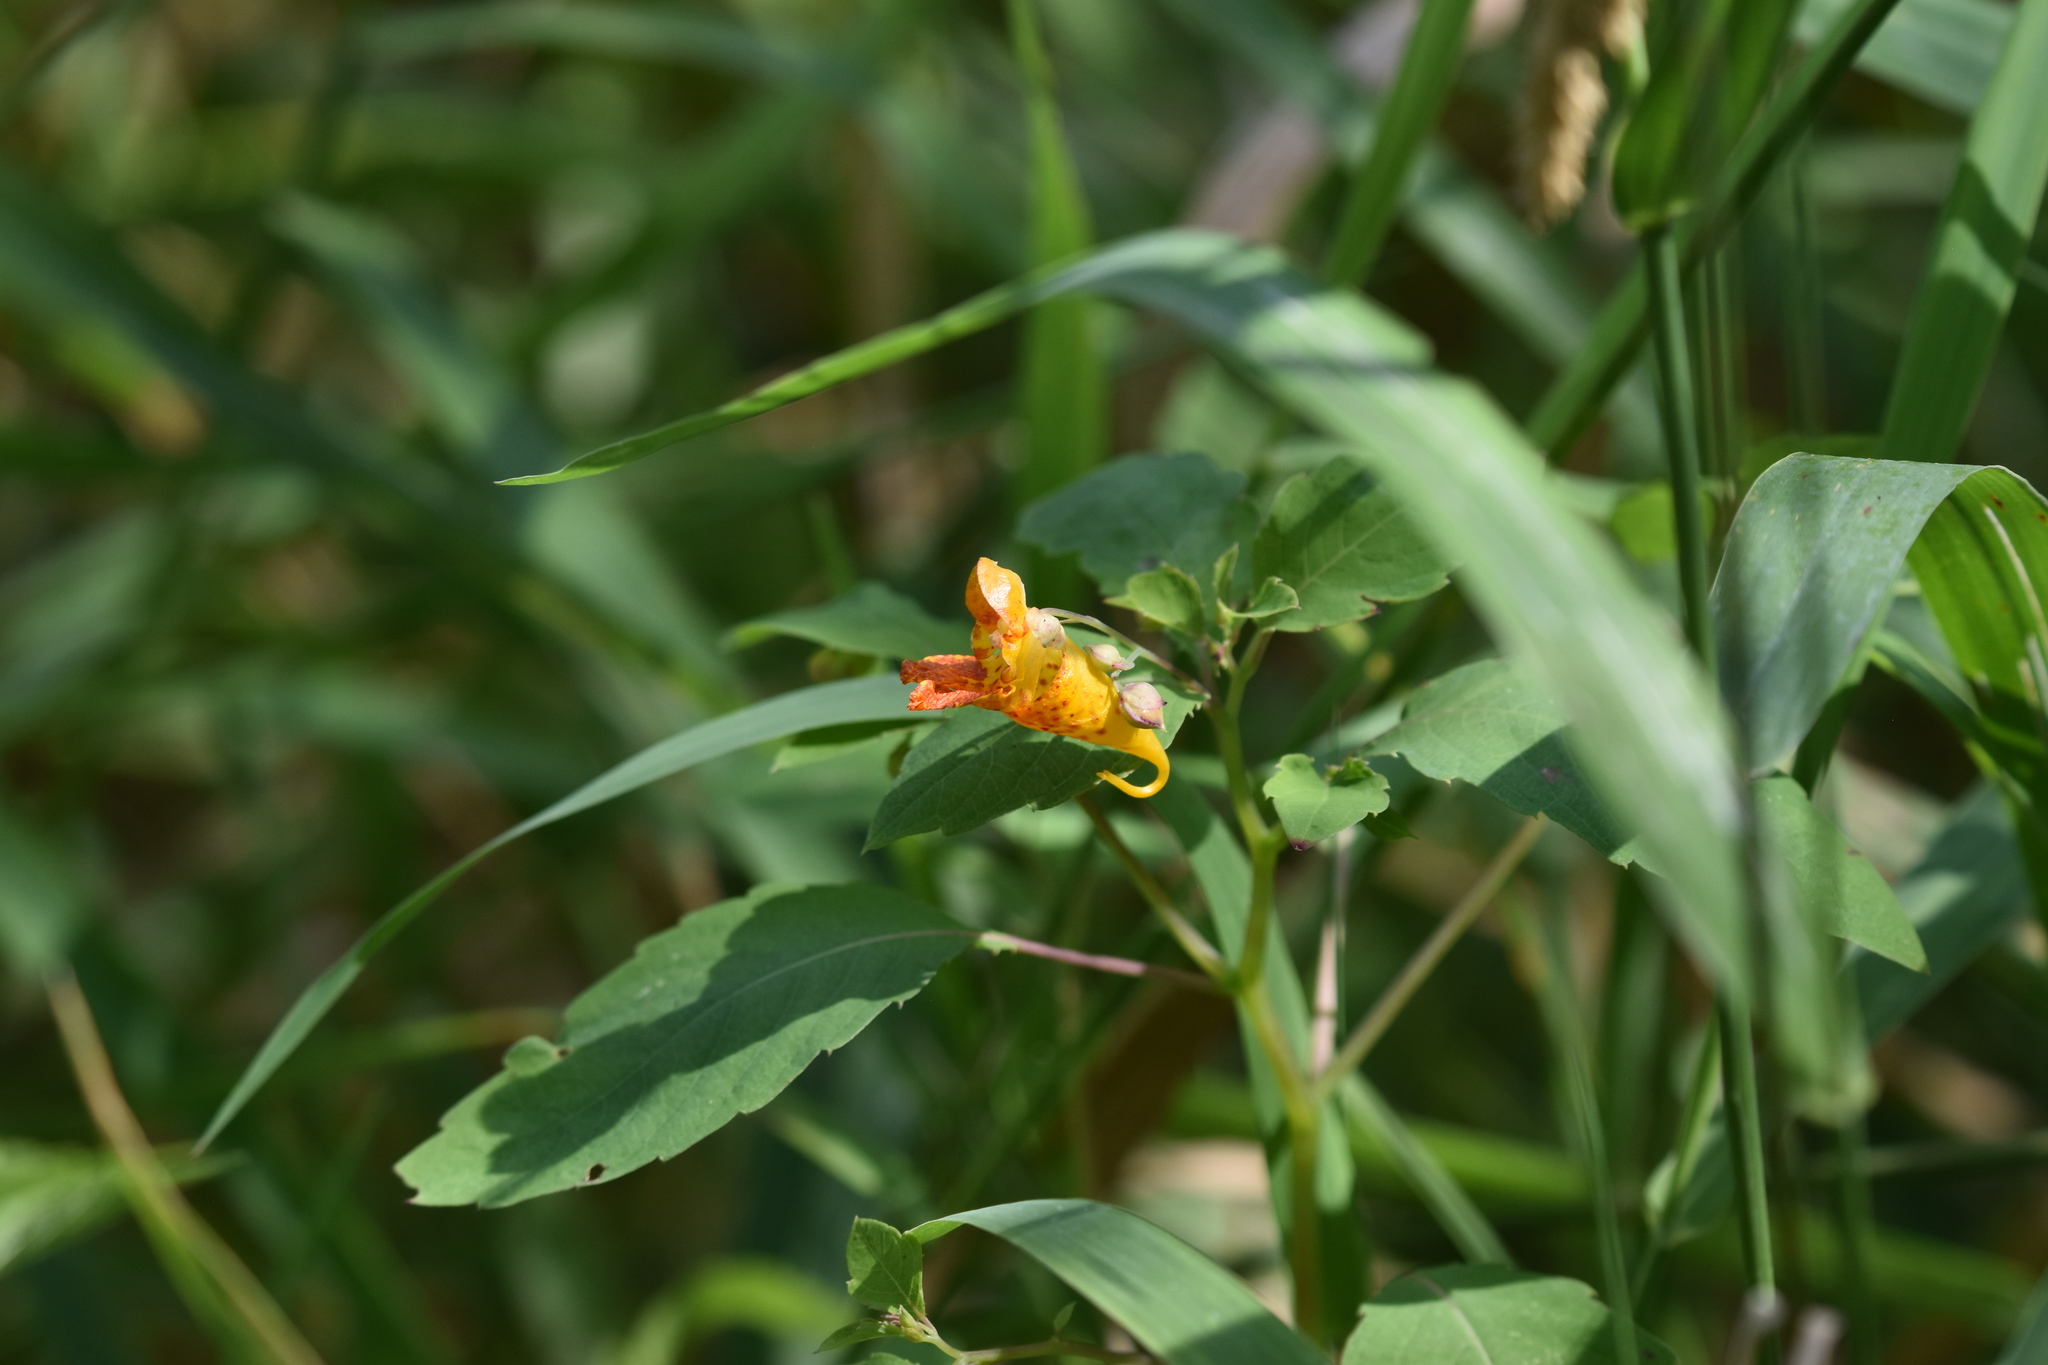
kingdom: Plantae
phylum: Tracheophyta
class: Magnoliopsida
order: Ericales
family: Balsaminaceae
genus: Impatiens
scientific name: Impatiens capensis
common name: Orange balsam
